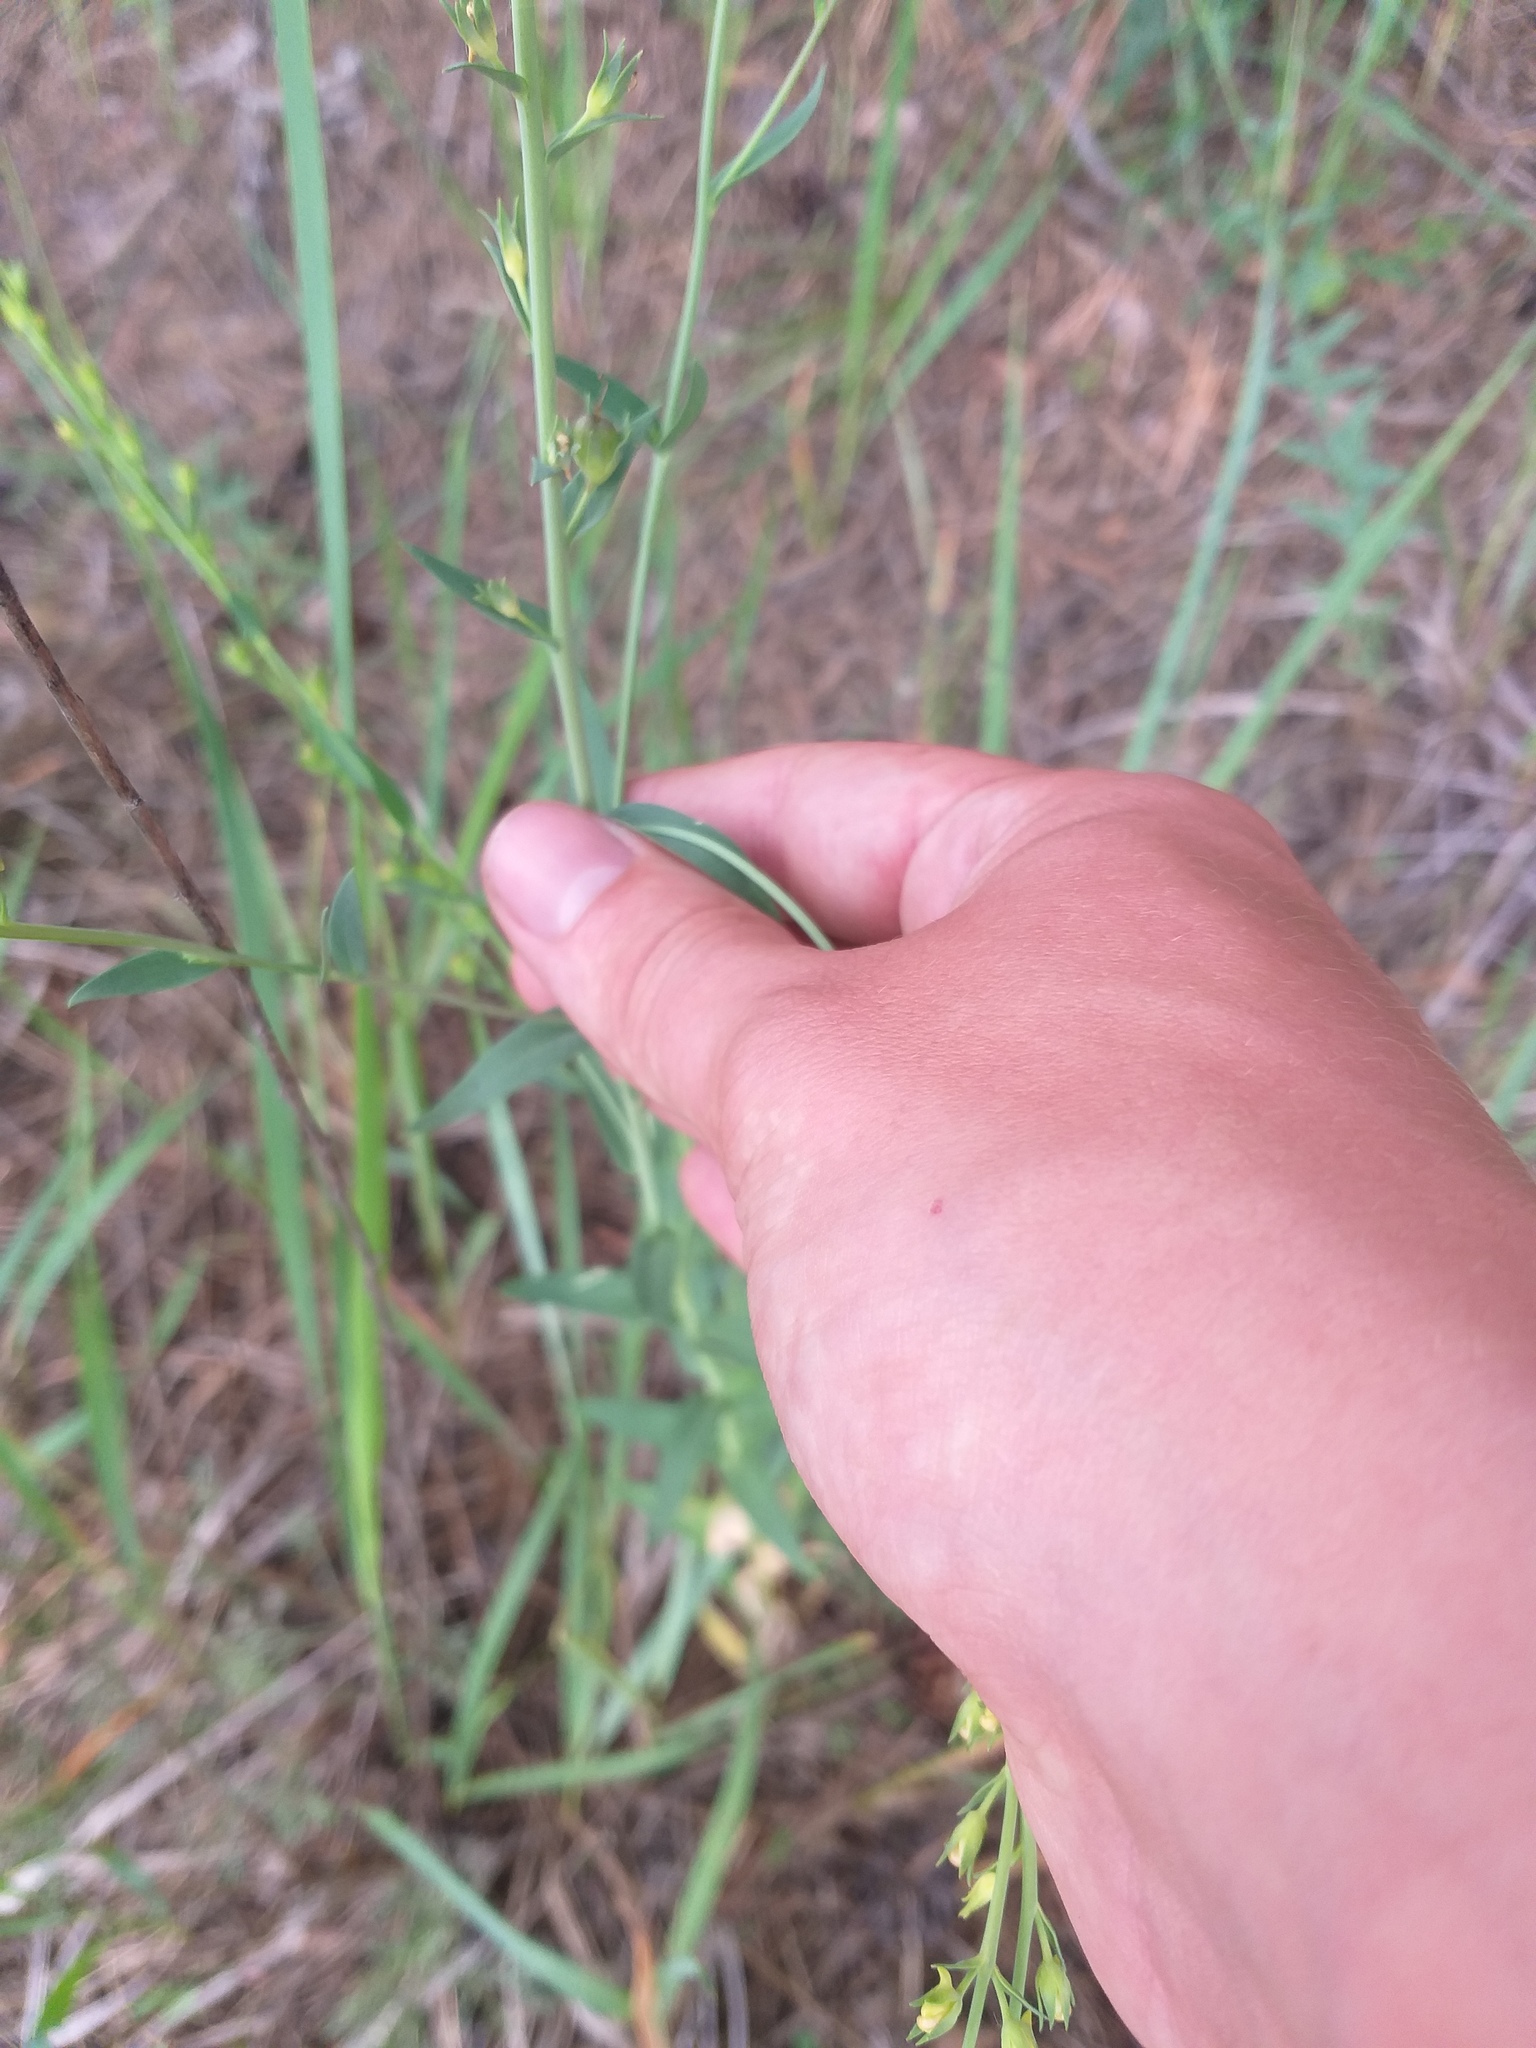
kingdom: Plantae
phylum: Tracheophyta
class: Magnoliopsida
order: Lamiales
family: Plantaginaceae
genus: Linaria
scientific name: Linaria genistifolia
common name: Broomleaf toadflax
